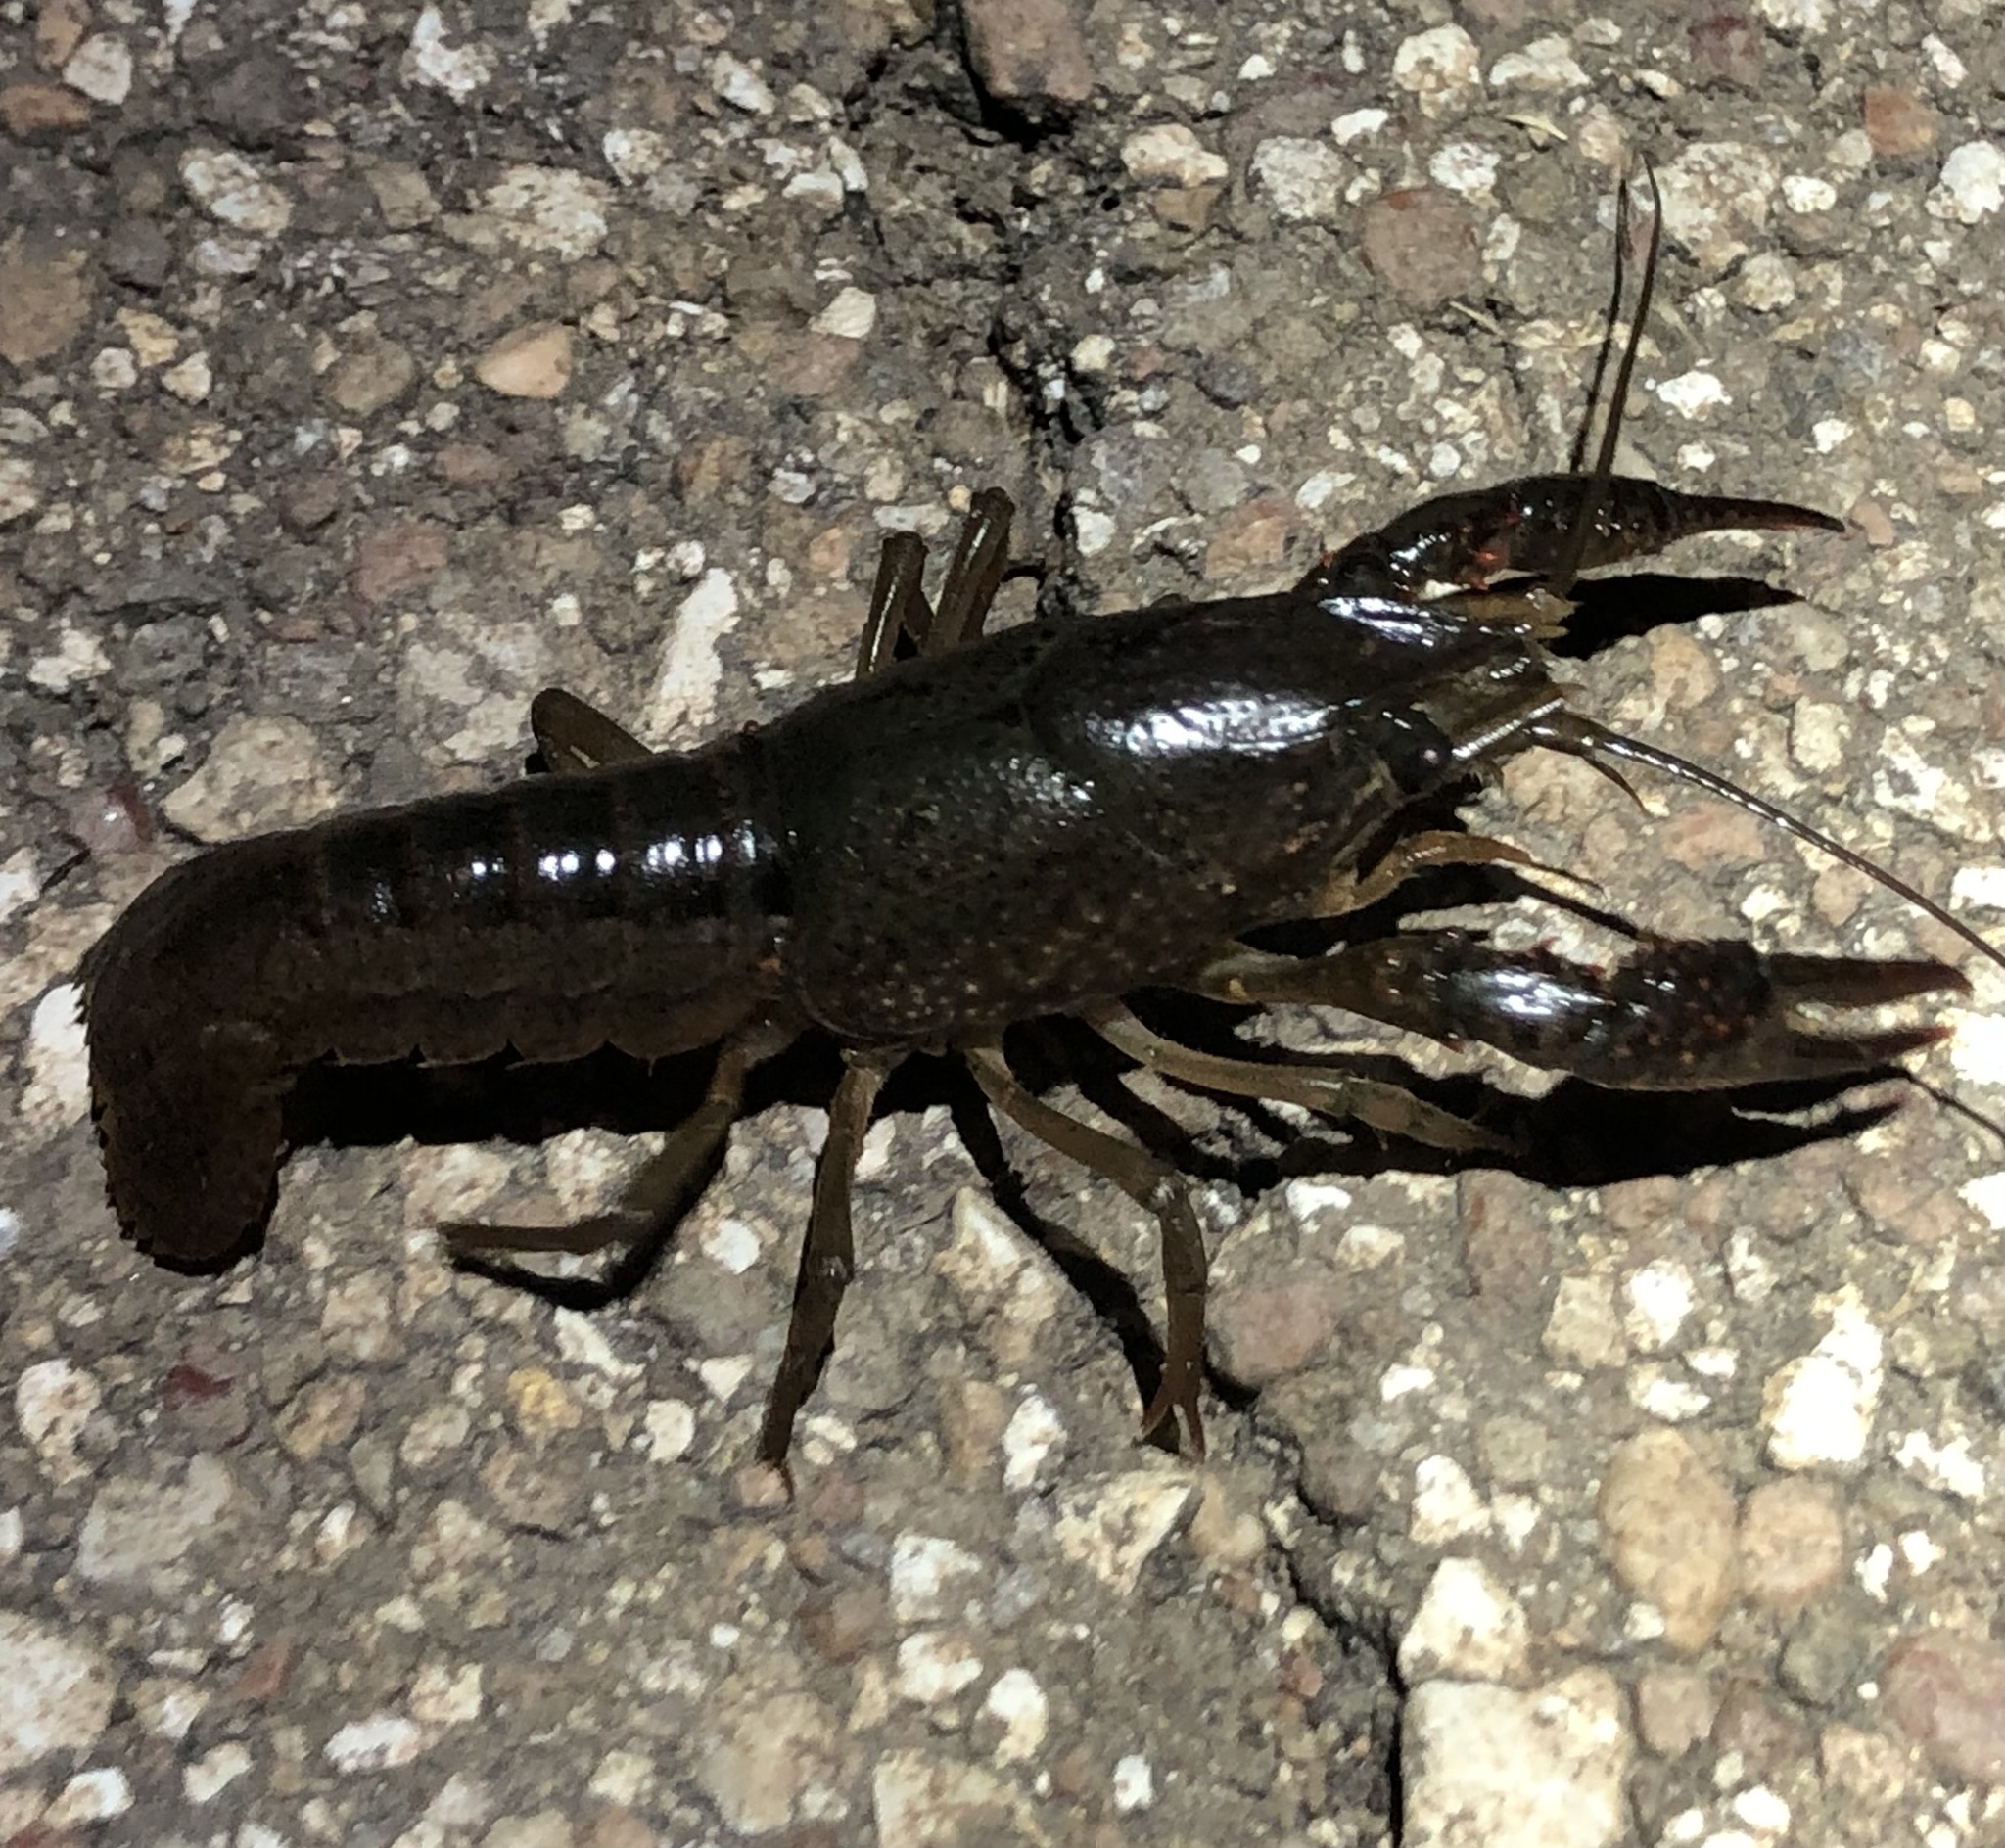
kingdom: Animalia
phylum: Arthropoda
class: Malacostraca
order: Decapoda
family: Cambaridae
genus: Procambarus
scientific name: Procambarus clarkii
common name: Red swamp crayfish
